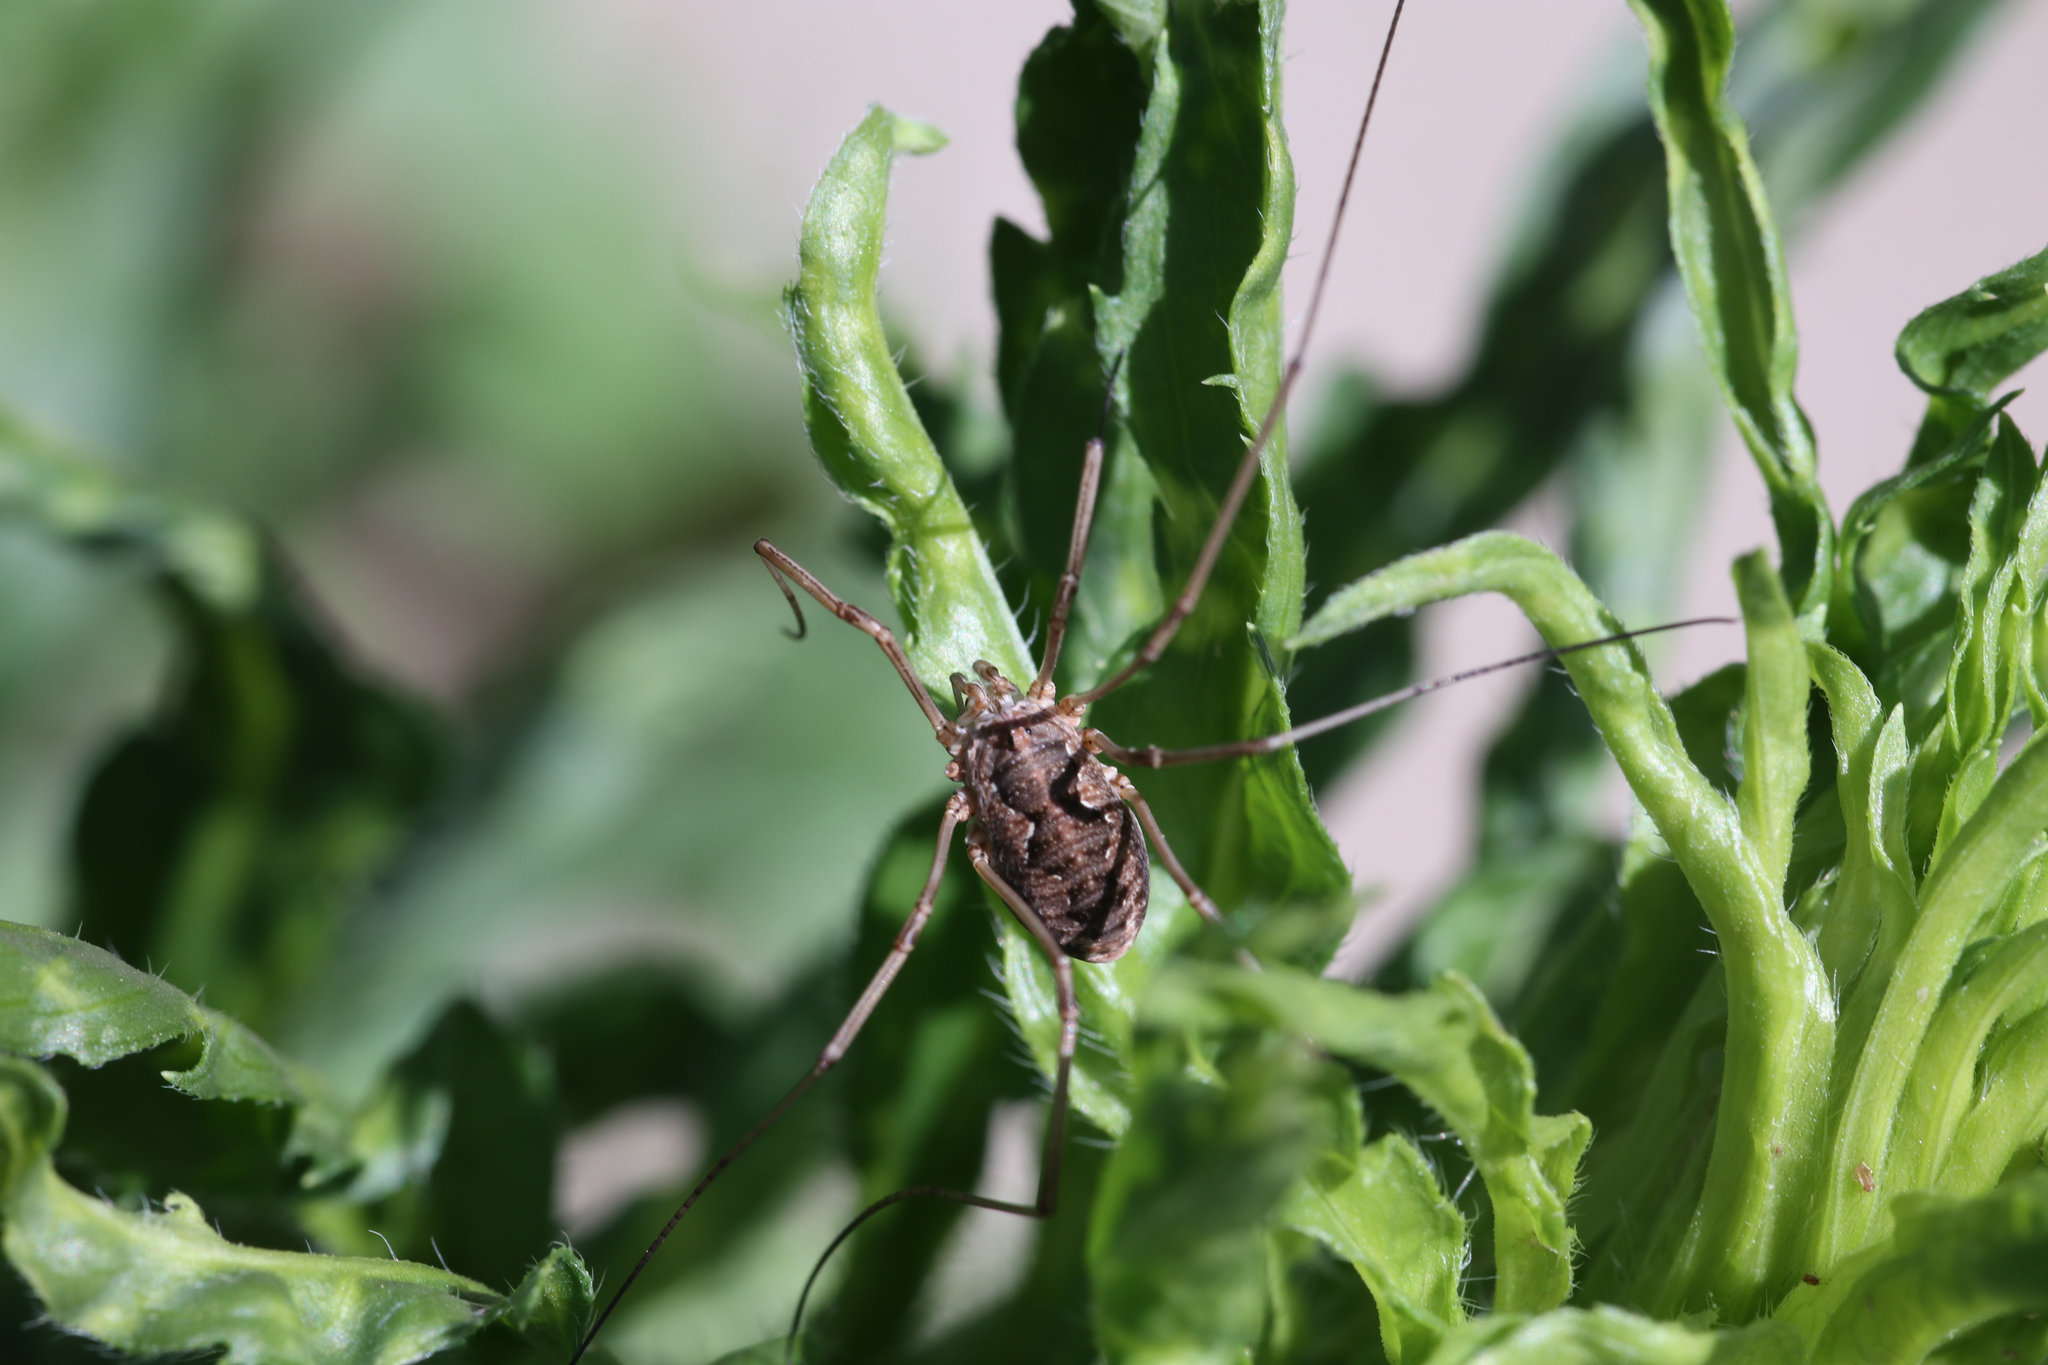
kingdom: Animalia
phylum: Arthropoda
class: Arachnida
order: Opiliones
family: Phalangiidae
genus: Phalangium
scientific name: Phalangium opilio
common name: Daddy longleg
